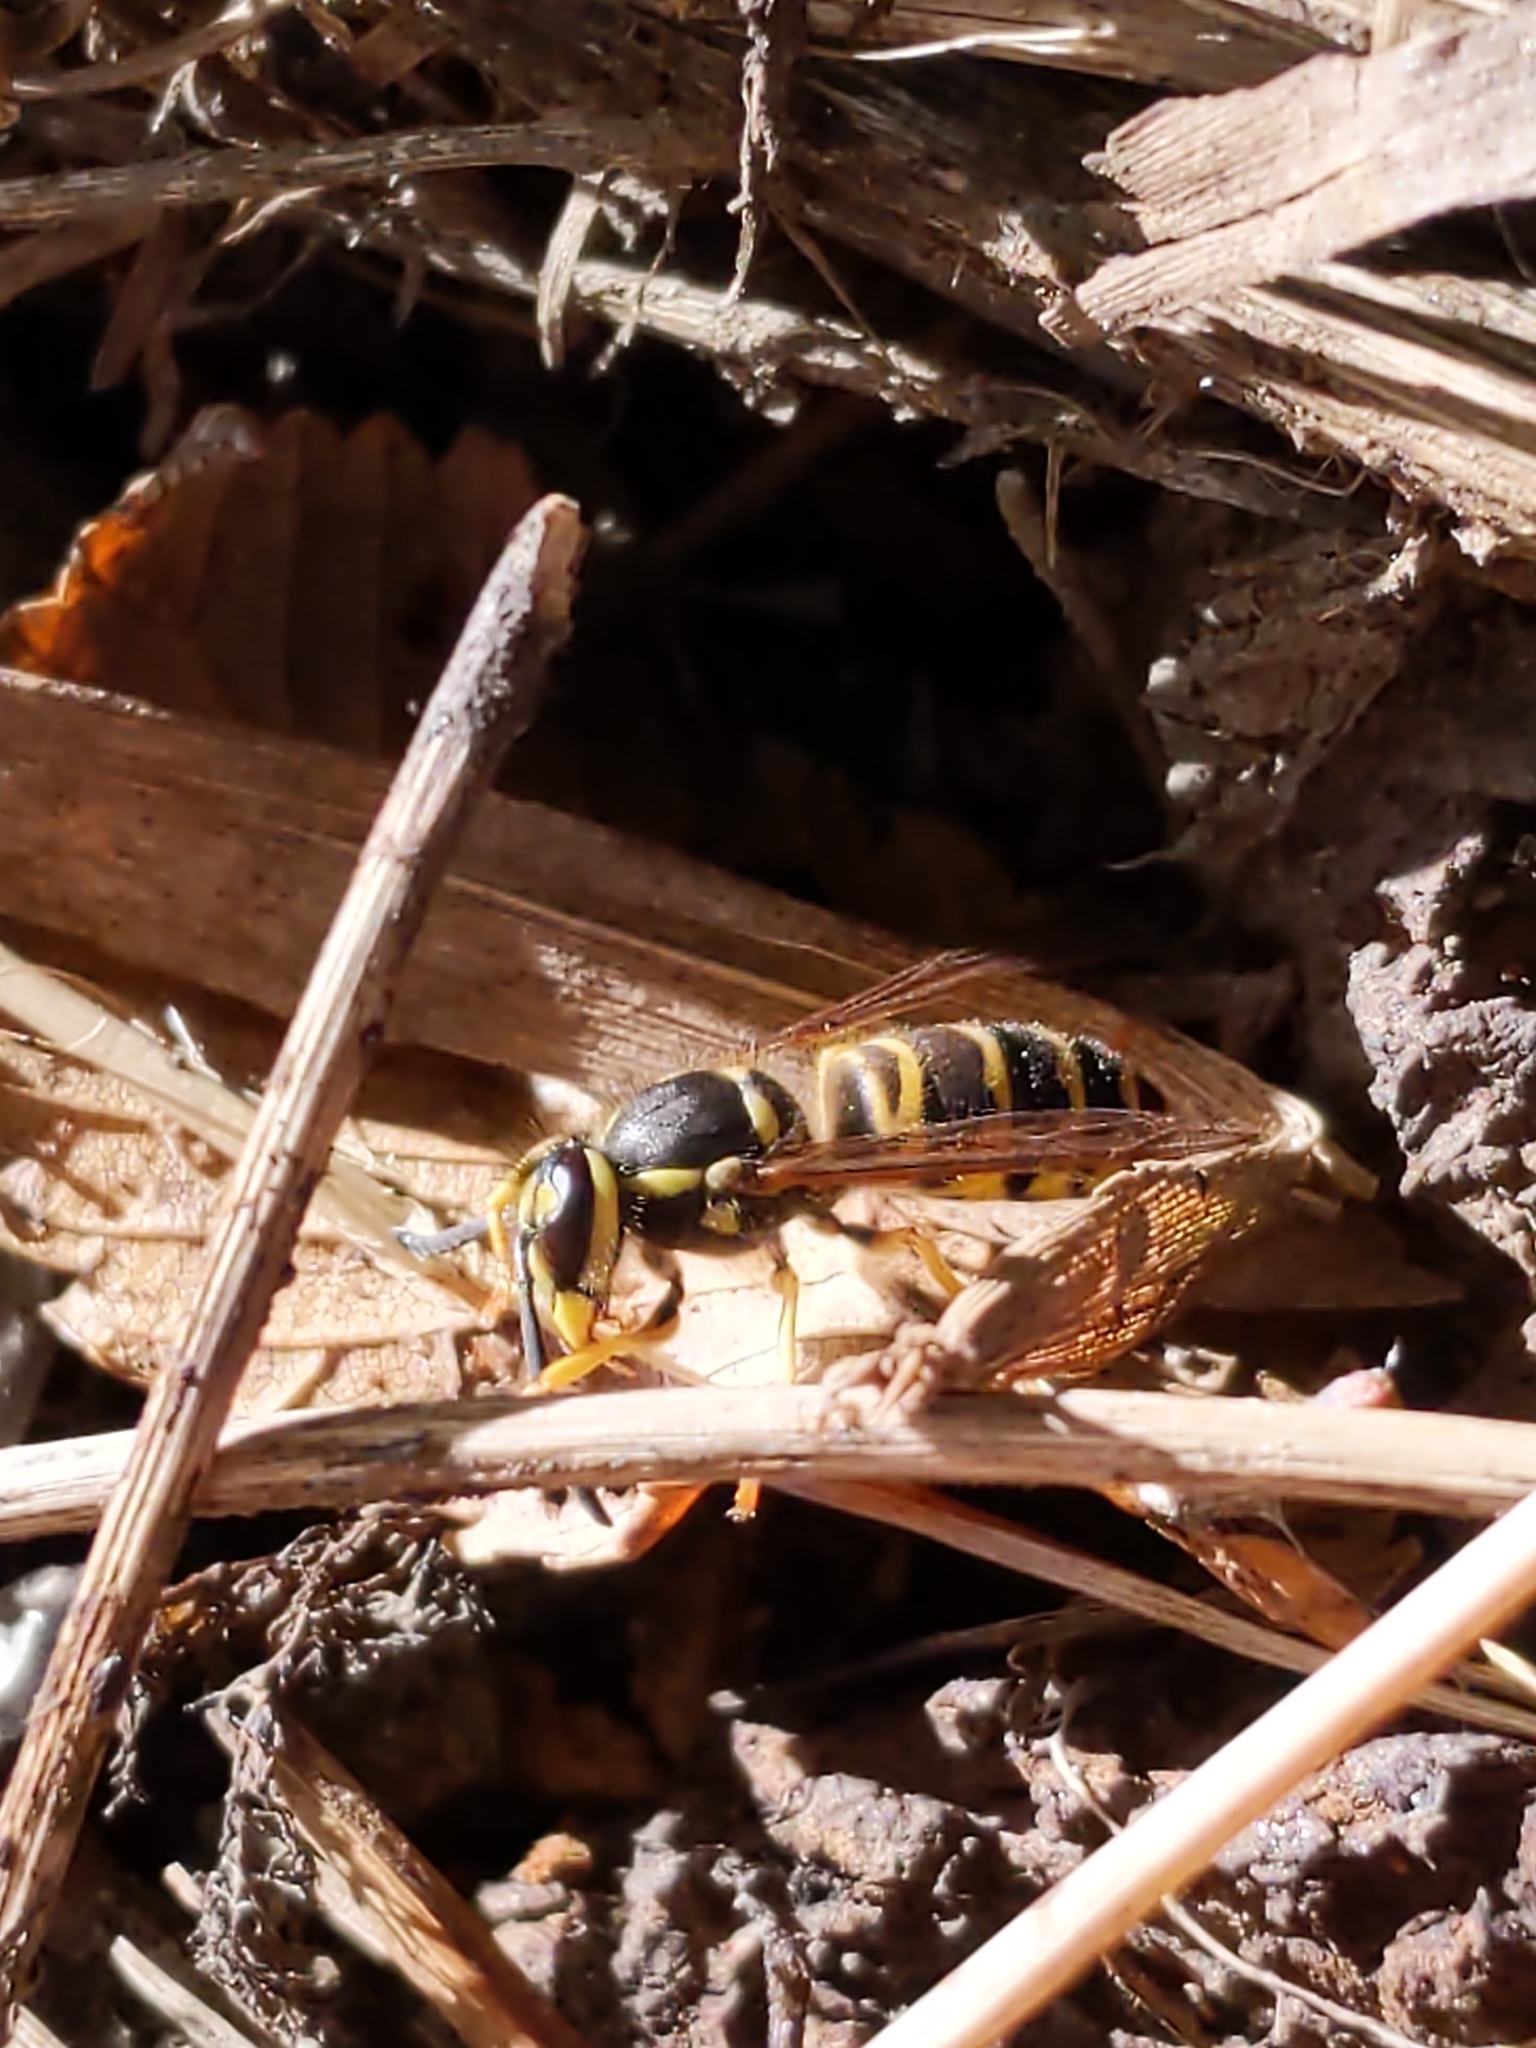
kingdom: Animalia
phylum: Arthropoda
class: Insecta
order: Hymenoptera
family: Vespidae
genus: Vespula
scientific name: Vespula maculifrons
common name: Eastern yellowjacket
